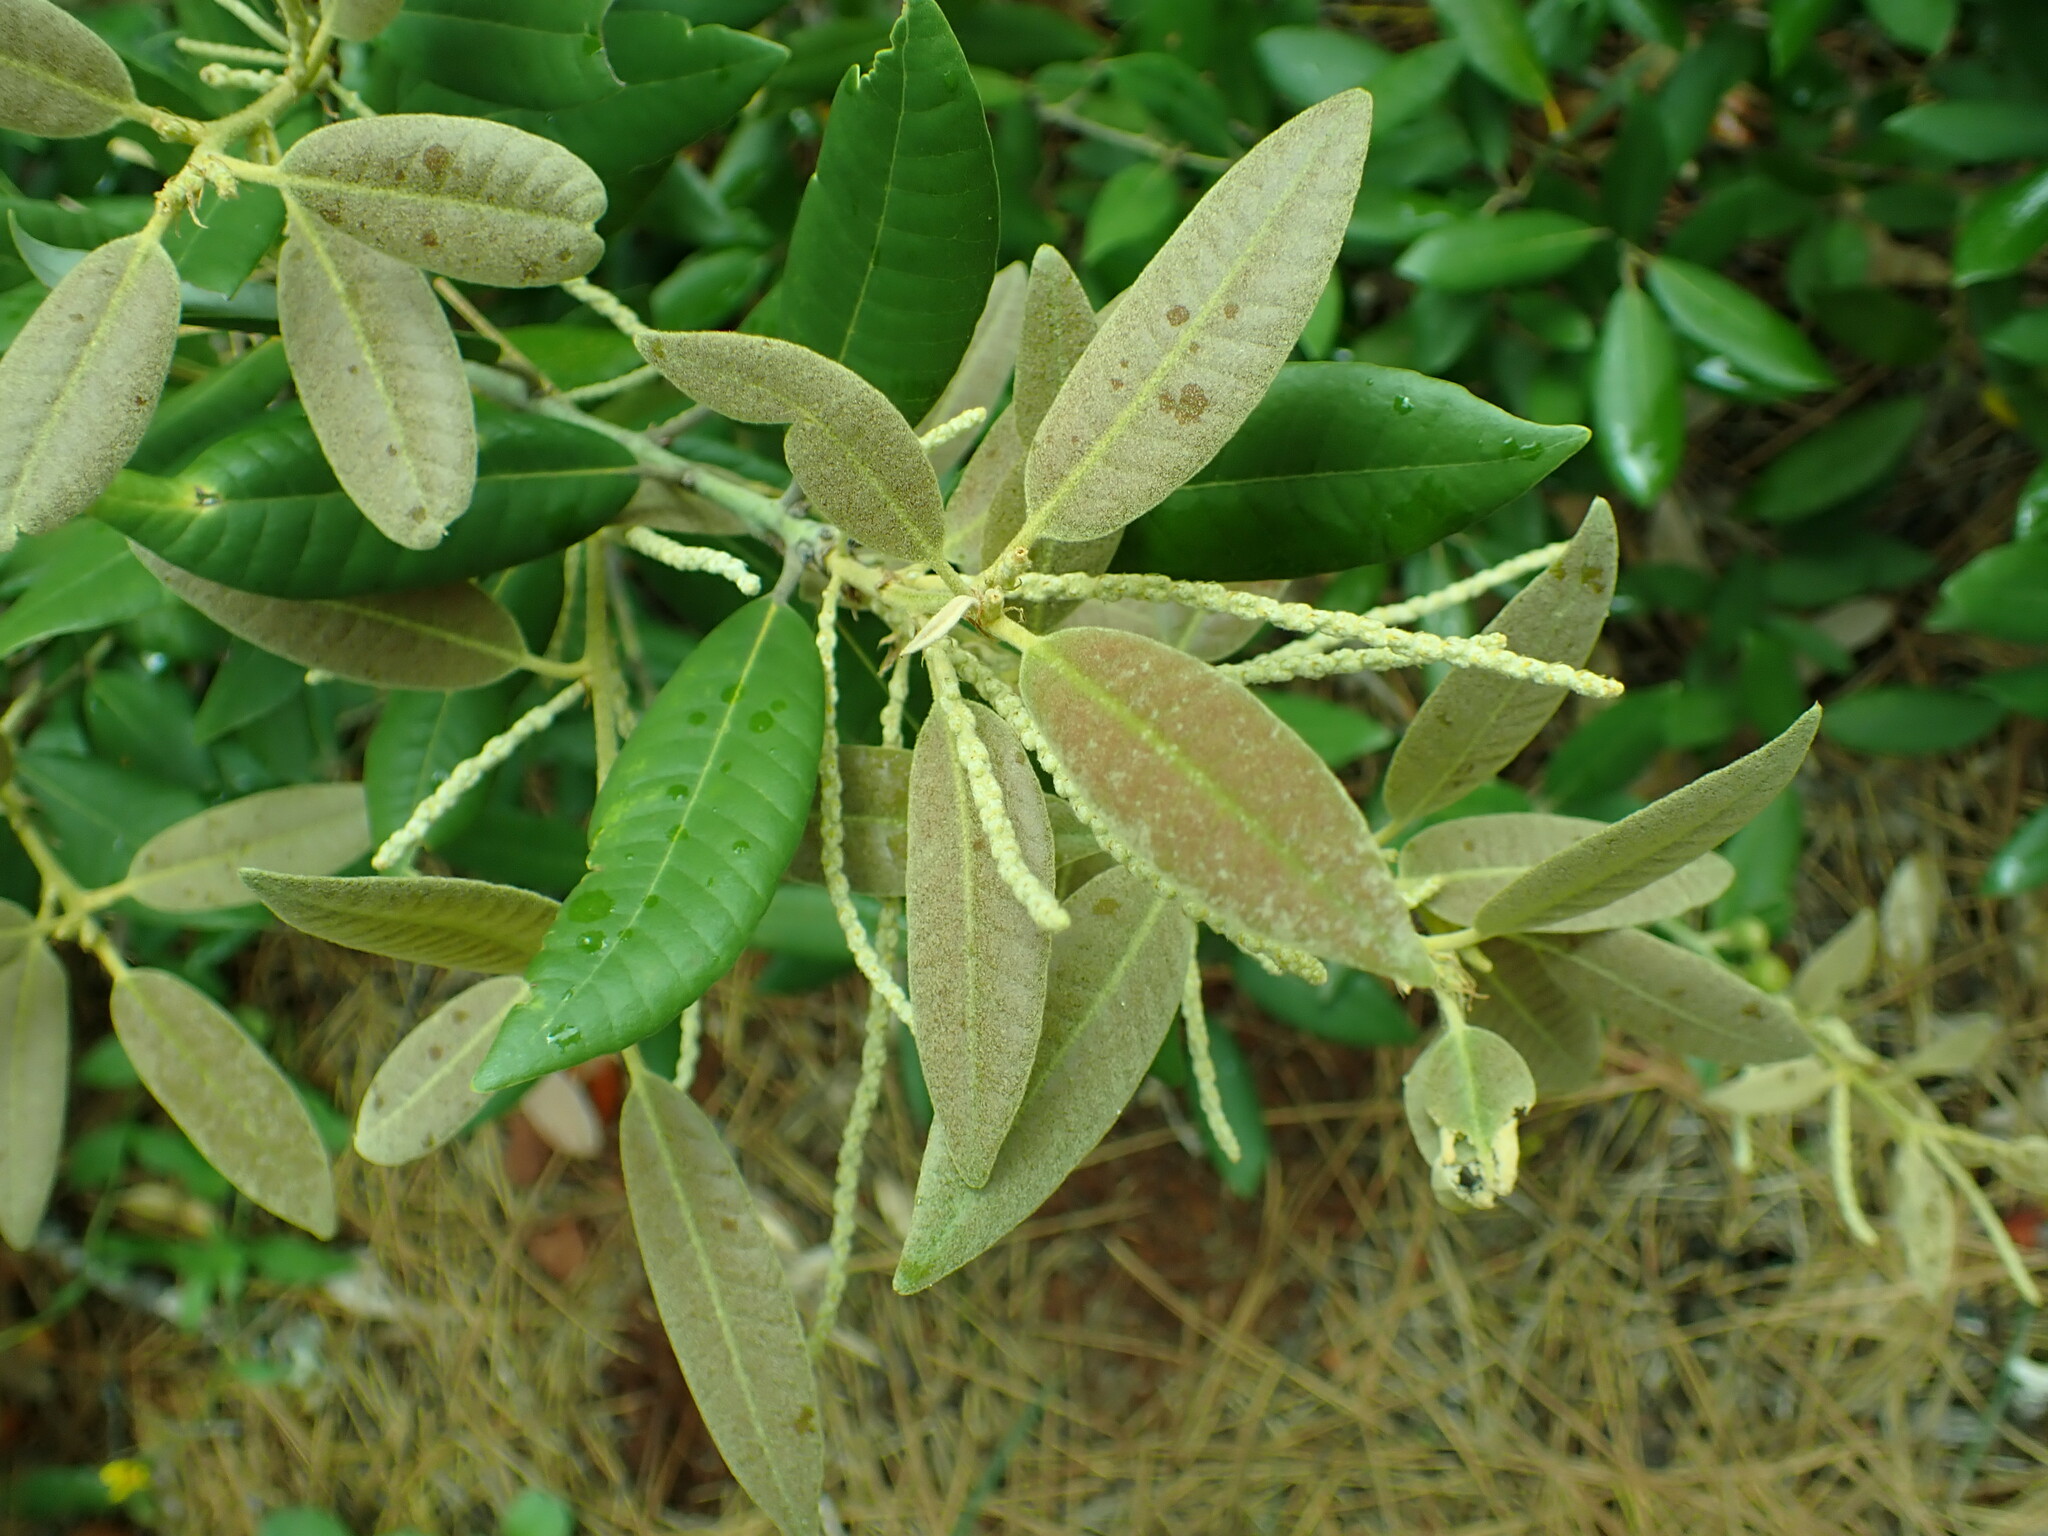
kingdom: Plantae
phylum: Tracheophyta
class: Magnoliopsida
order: Fagales
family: Fagaceae
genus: Notholithocarpus
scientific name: Notholithocarpus densiflorus
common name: Tan bark oak
